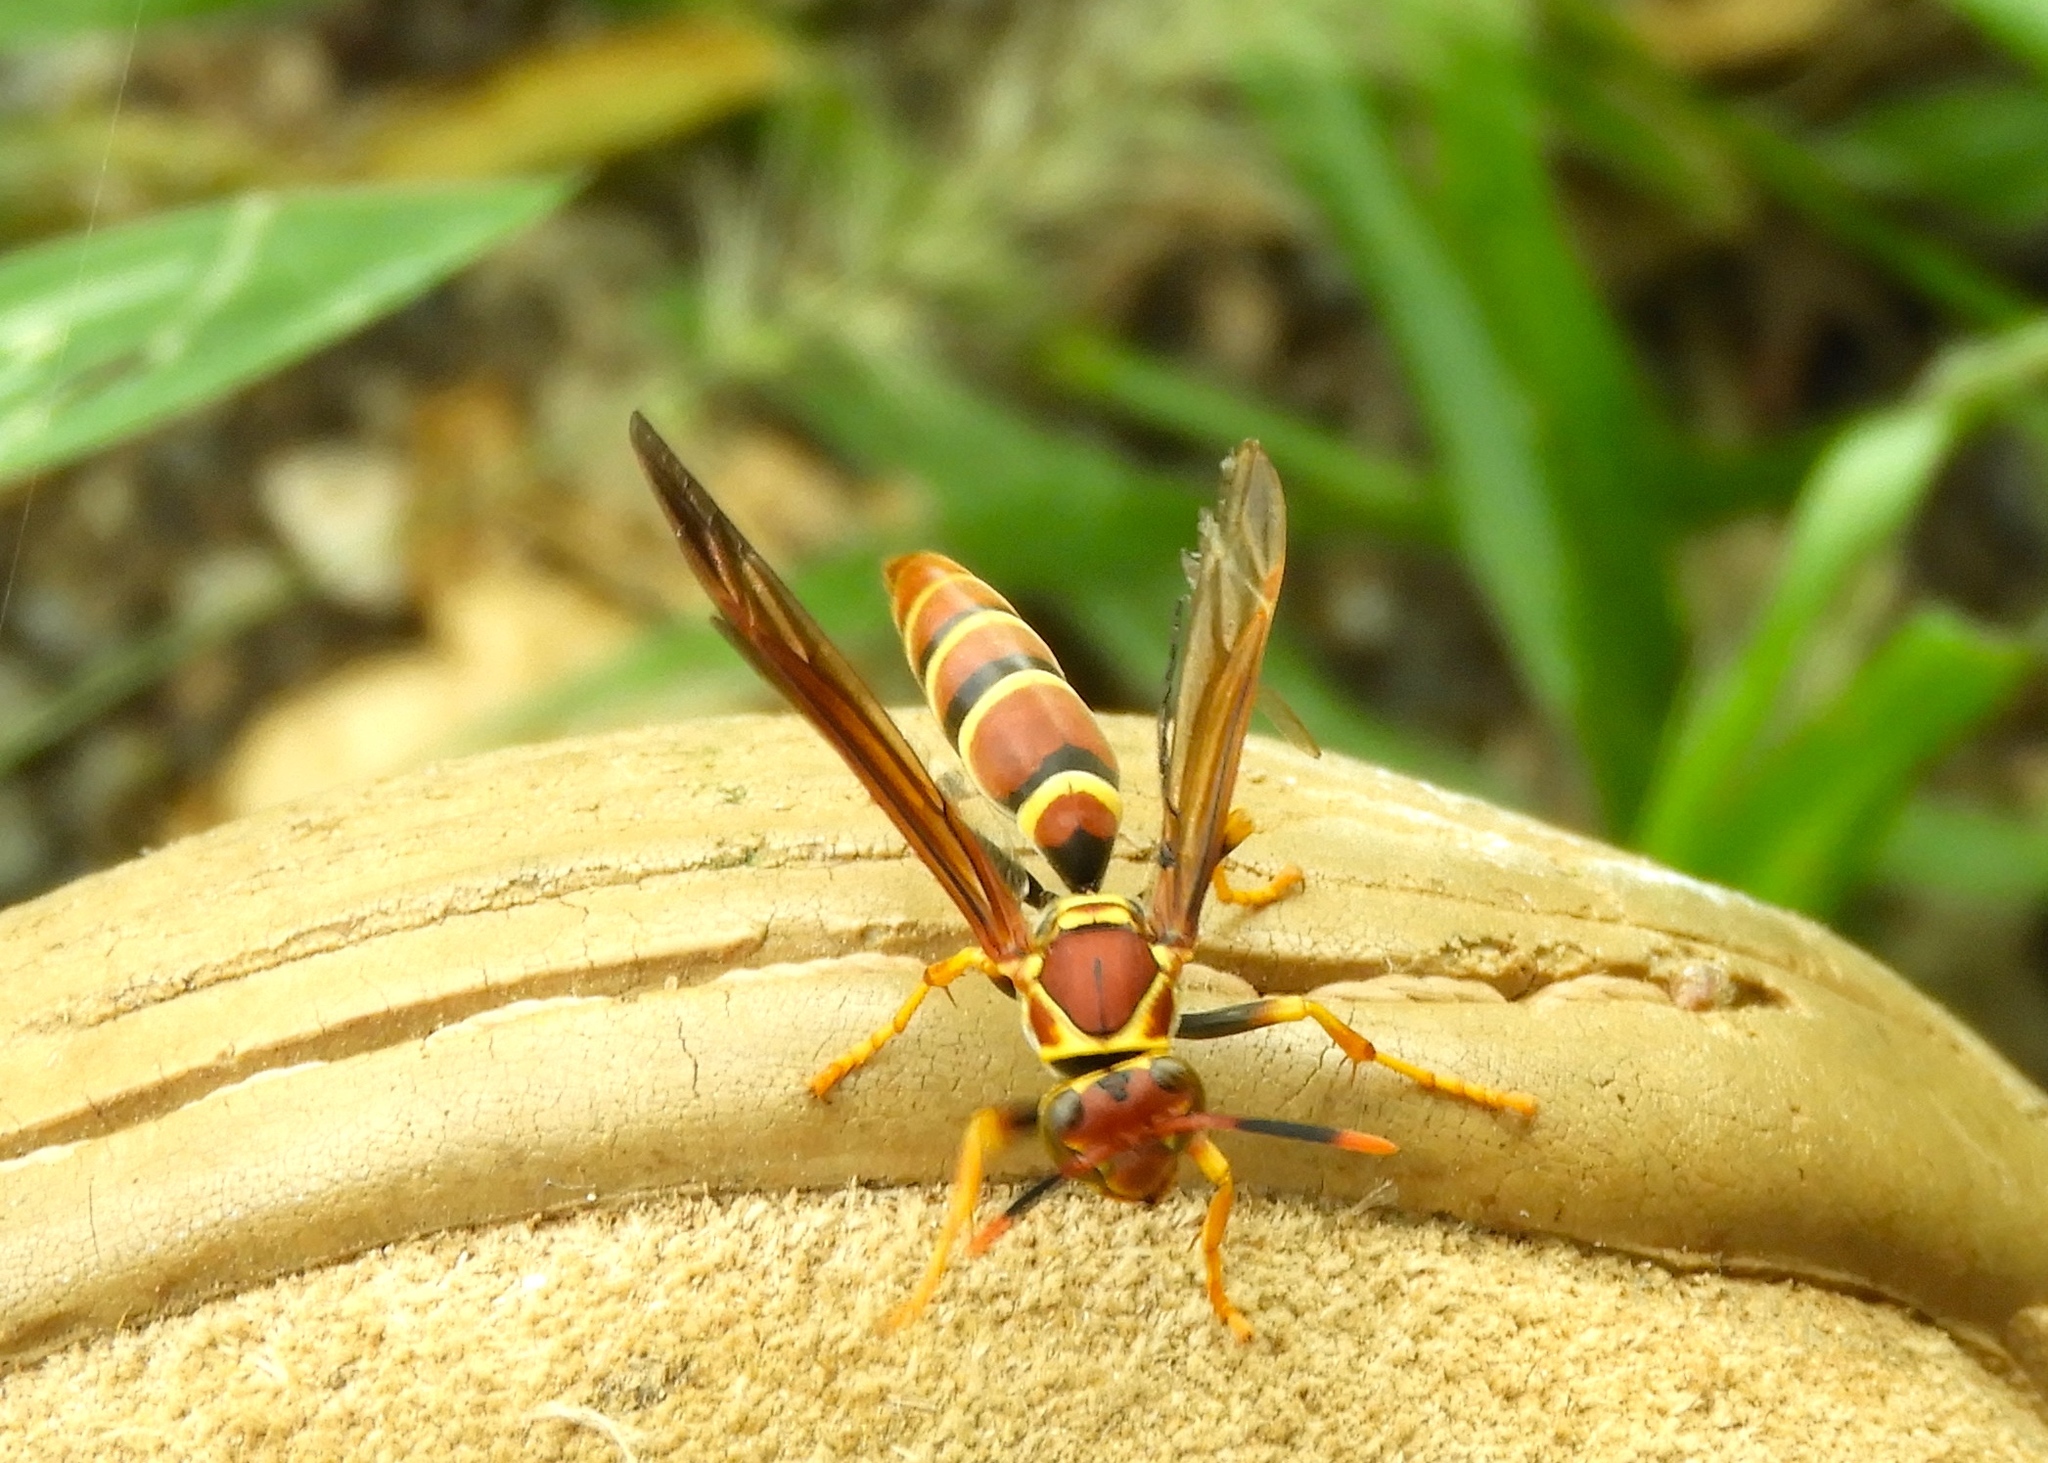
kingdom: Animalia
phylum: Arthropoda
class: Insecta
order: Hymenoptera
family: Pompilidae
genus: Aphanilopterus
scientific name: Aphanilopterus
